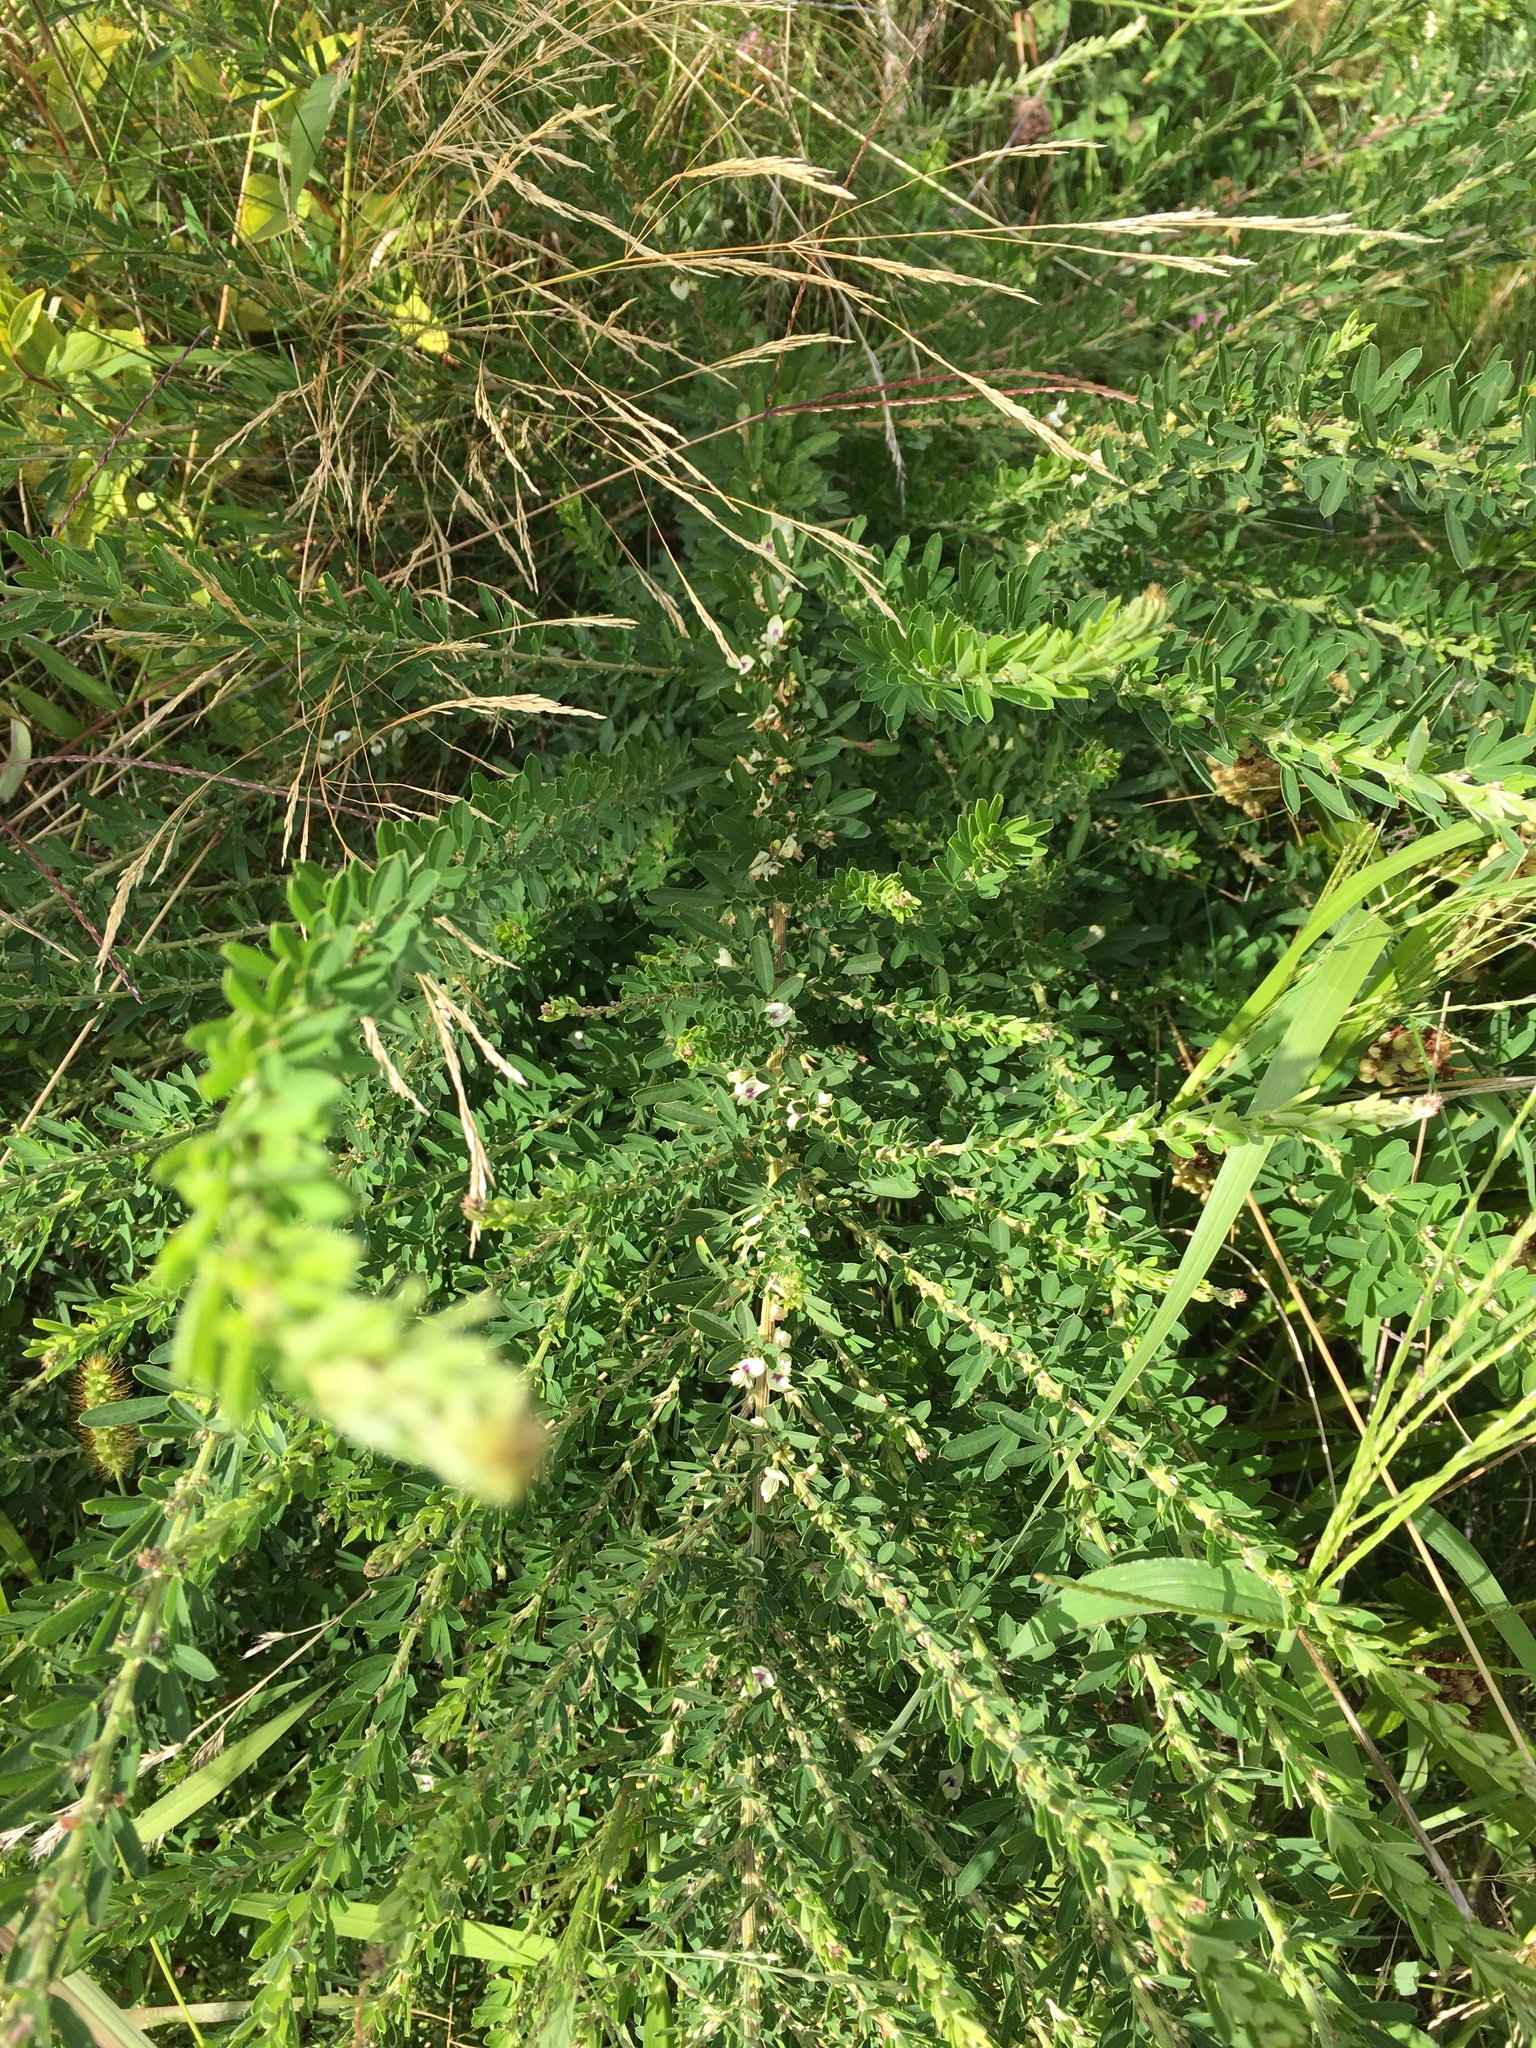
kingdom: Plantae
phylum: Tracheophyta
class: Magnoliopsida
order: Fabales
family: Fabaceae
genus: Lespedeza
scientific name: Lespedeza cuneata
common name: Chinese bush-clover
